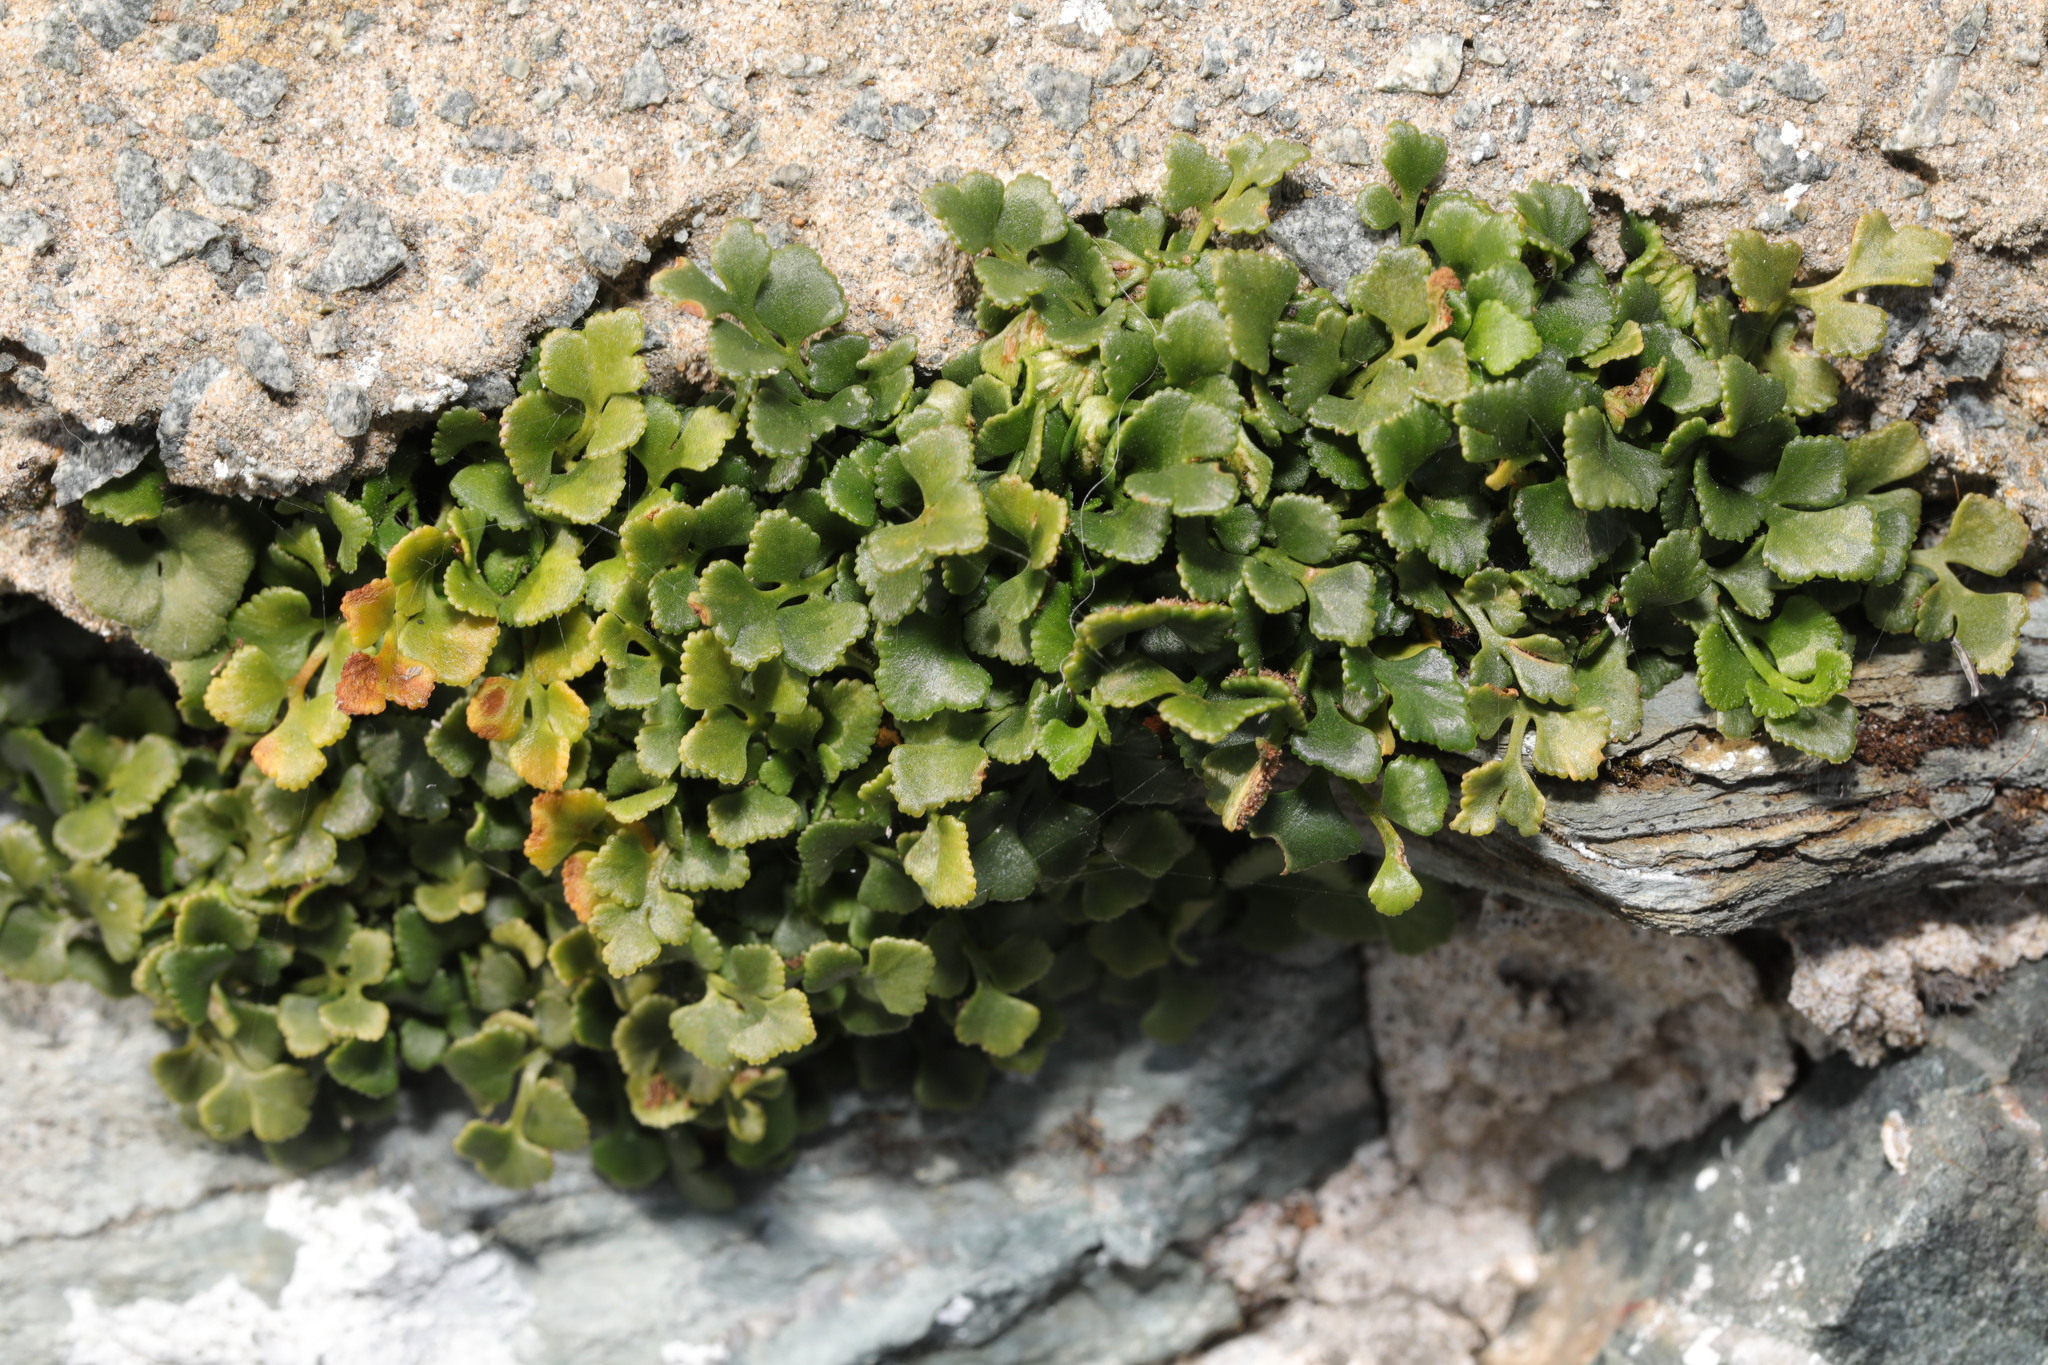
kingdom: Plantae
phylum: Tracheophyta
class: Polypodiopsida
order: Polypodiales
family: Aspleniaceae
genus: Asplenium
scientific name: Asplenium ruta-muraria
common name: Wall-rue
